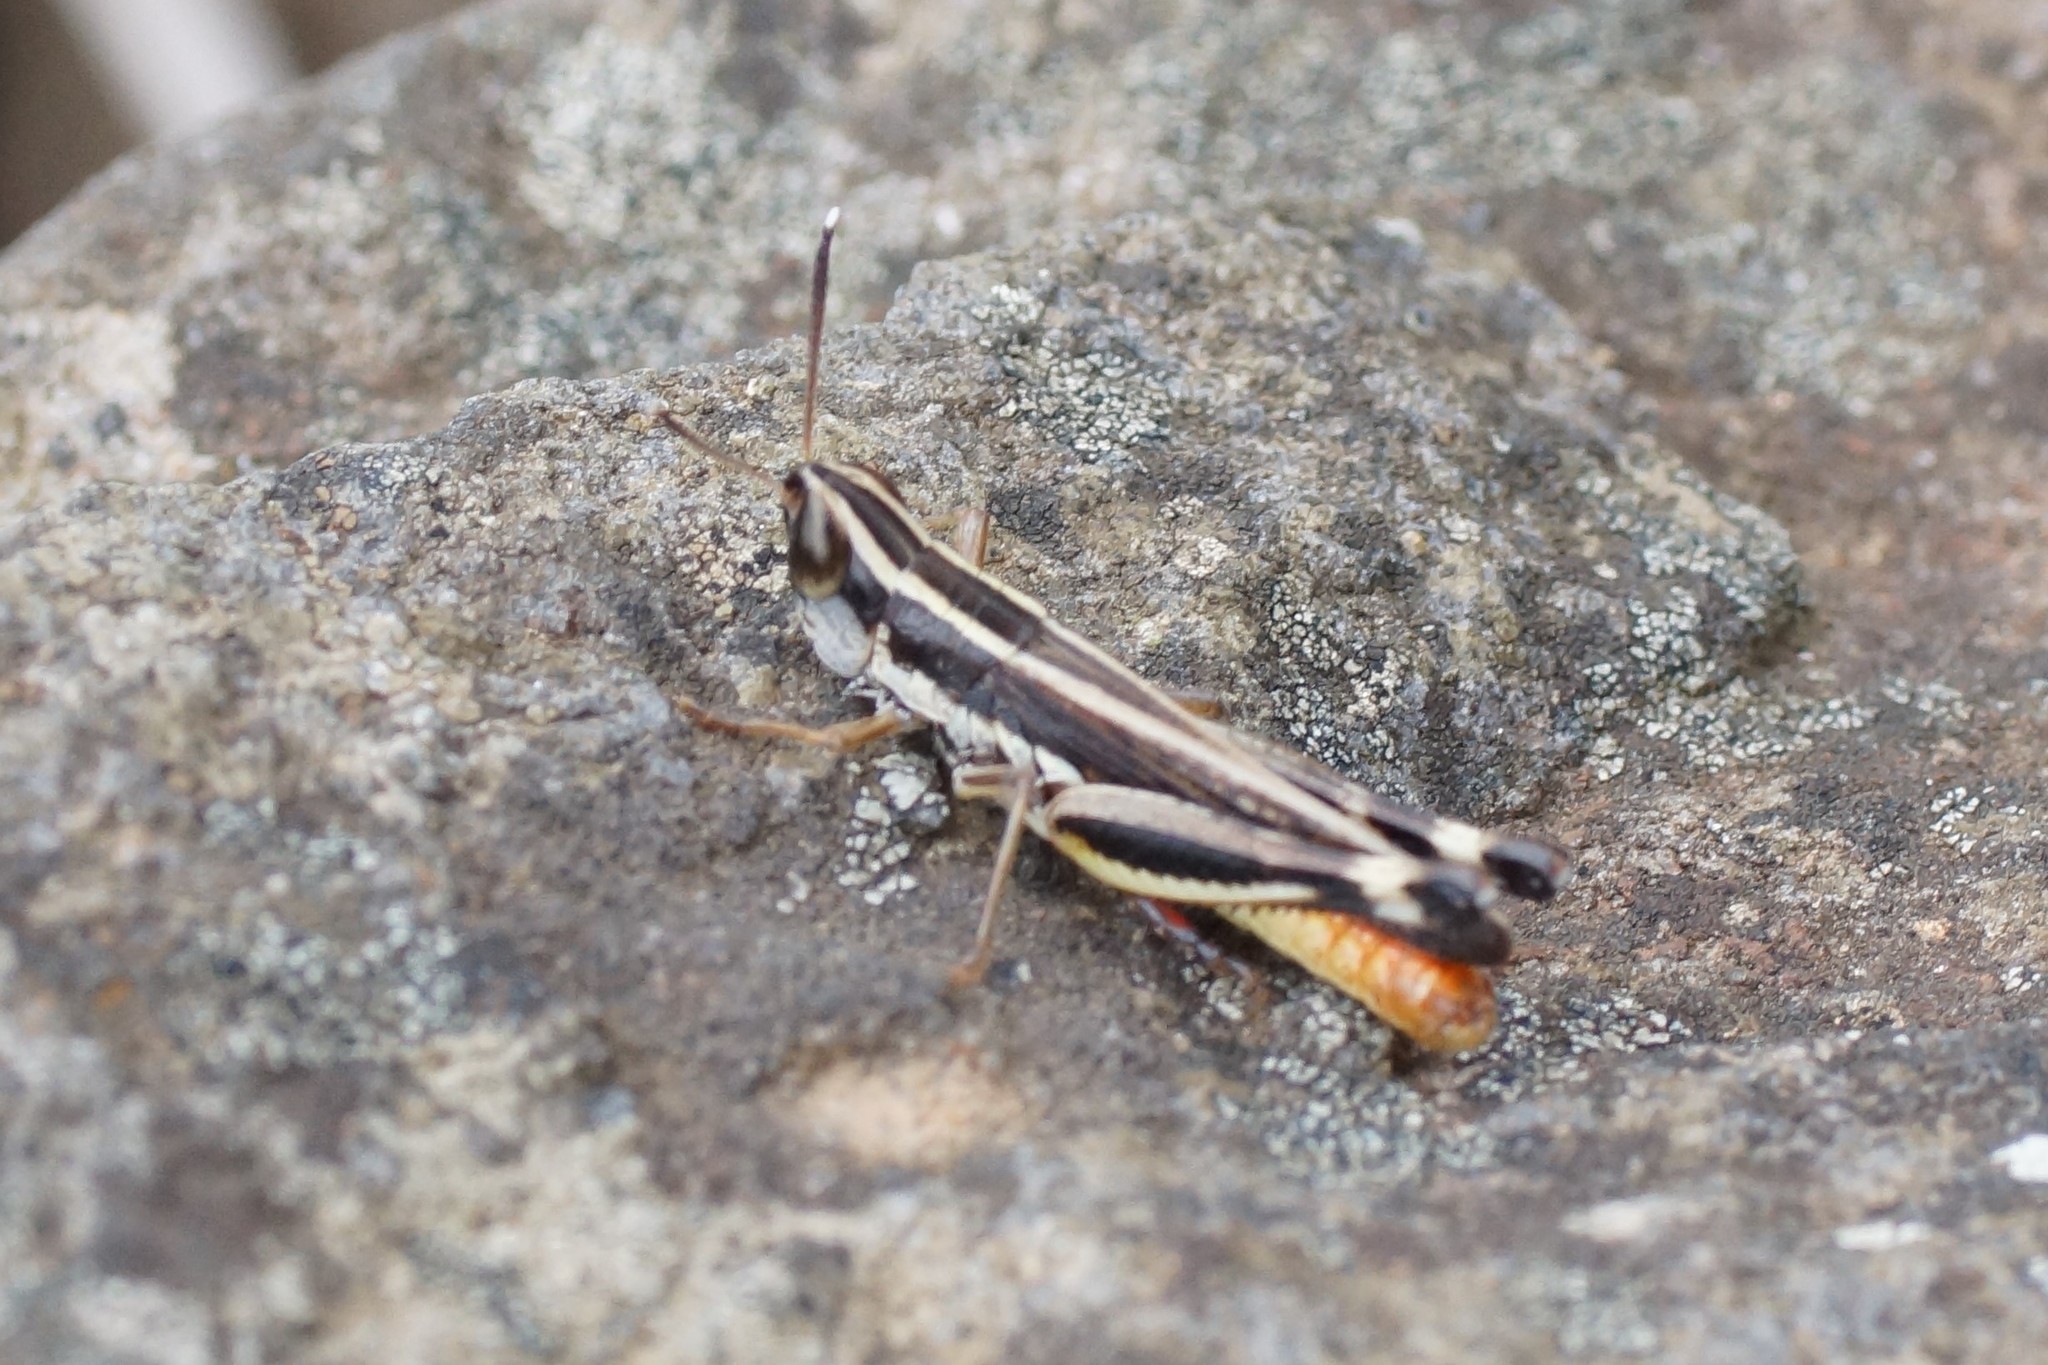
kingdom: Animalia
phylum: Arthropoda
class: Insecta
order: Orthoptera
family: Acrididae
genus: Macrotona
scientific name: Macrotona australis
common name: Common macrotona
